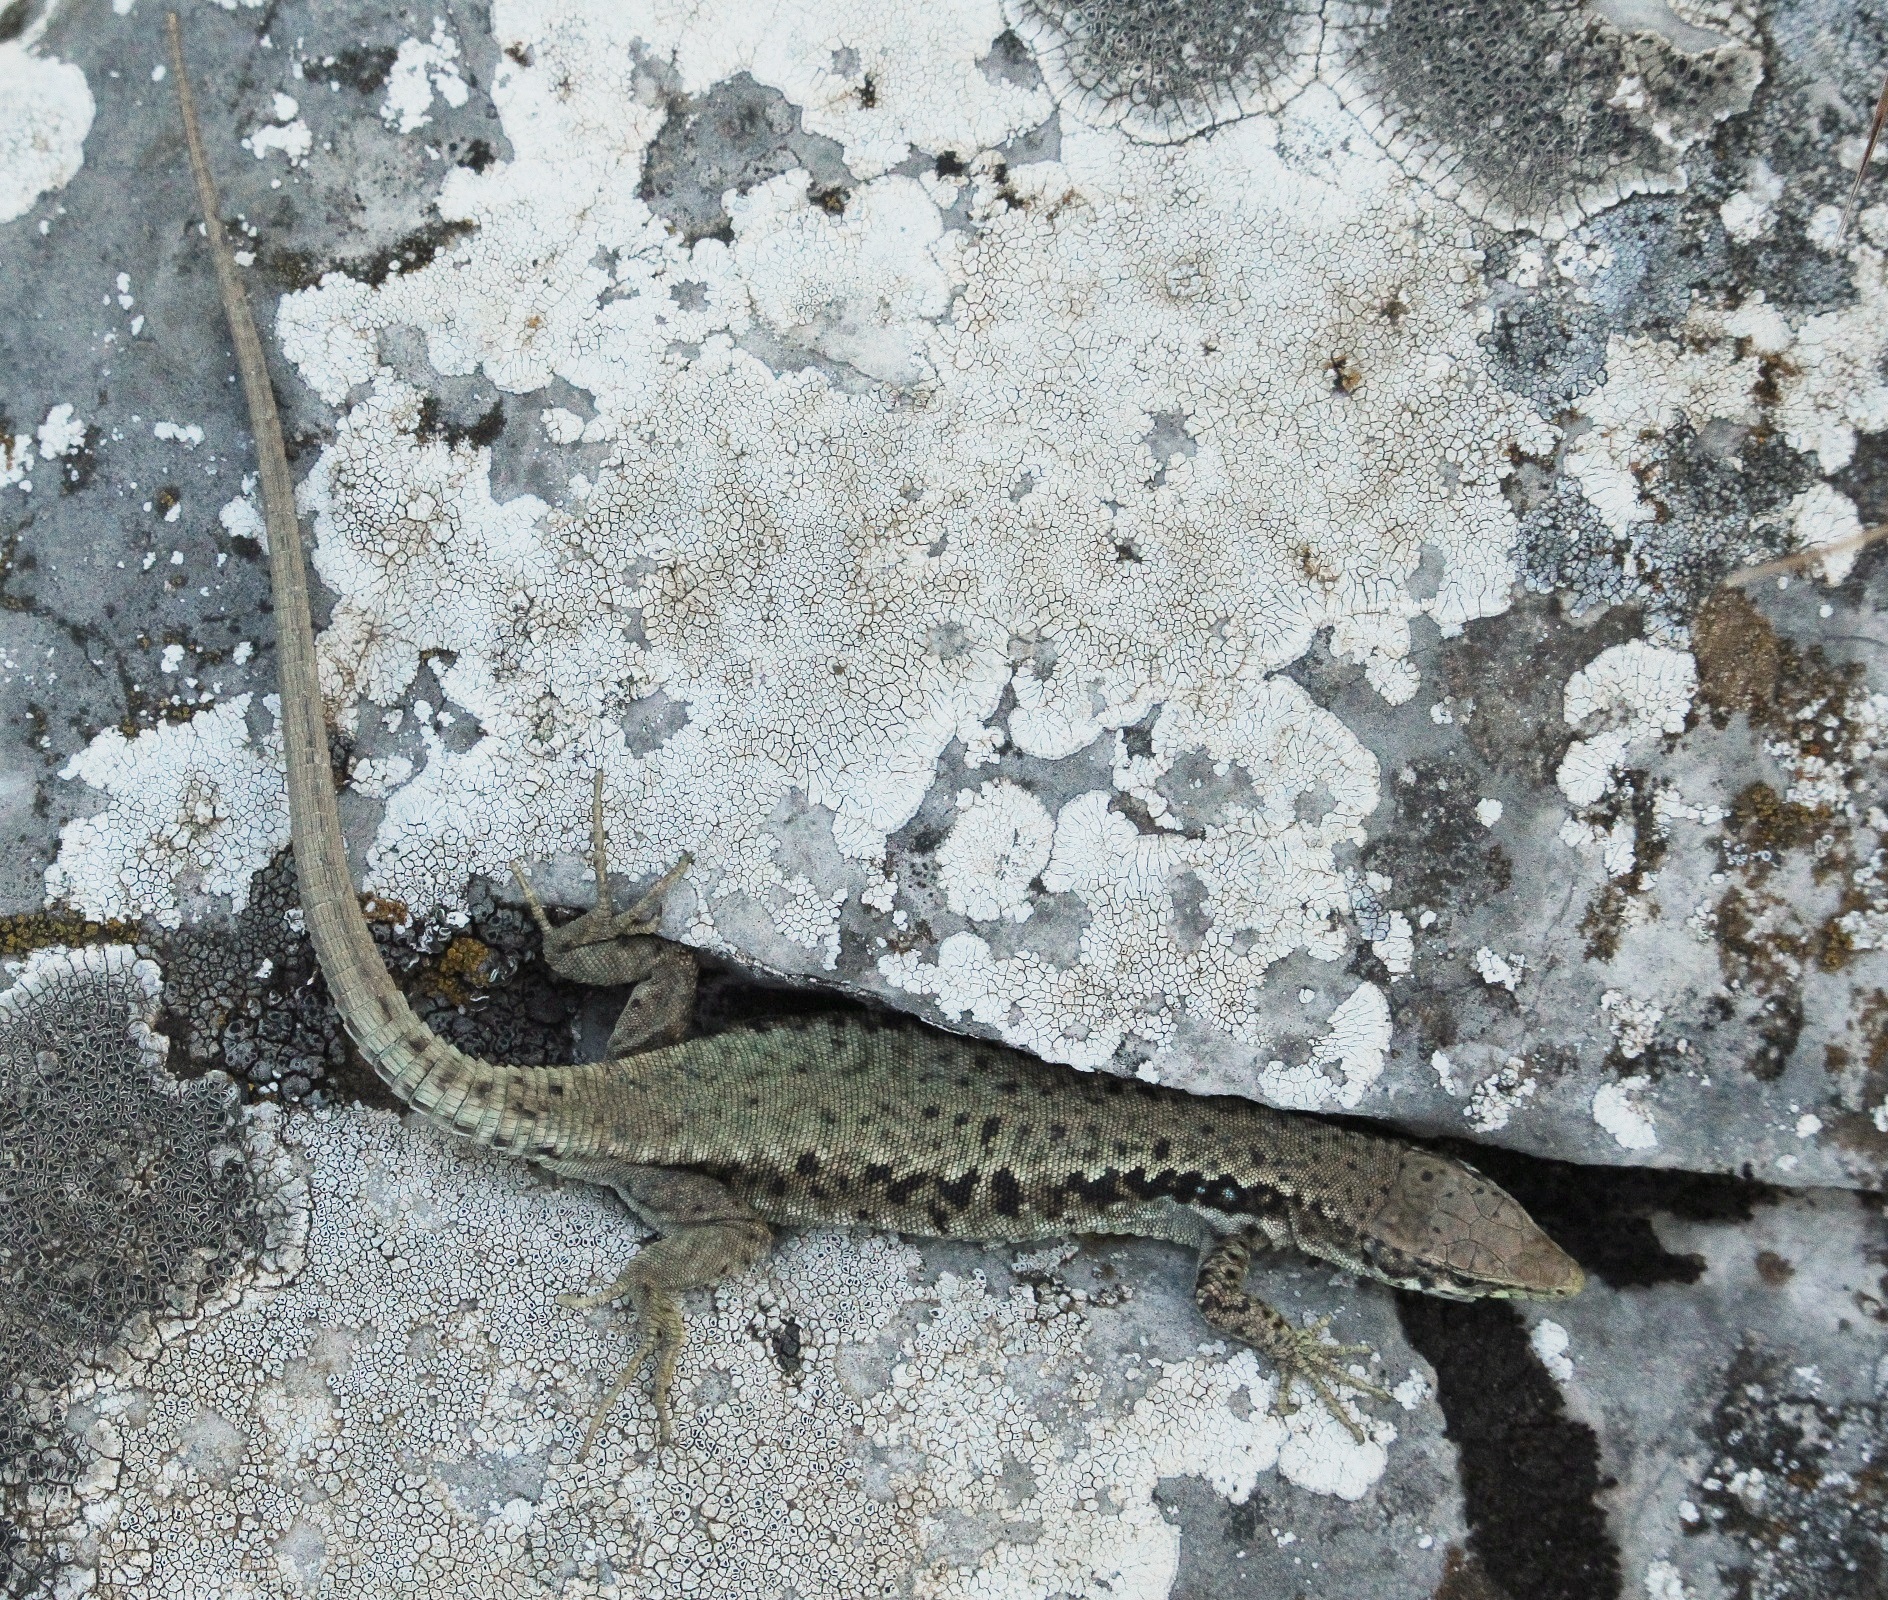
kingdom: Animalia
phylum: Chordata
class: Squamata
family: Lacertidae
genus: Darevskia
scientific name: Darevskia lindholmi
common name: Crimean rock lizard
